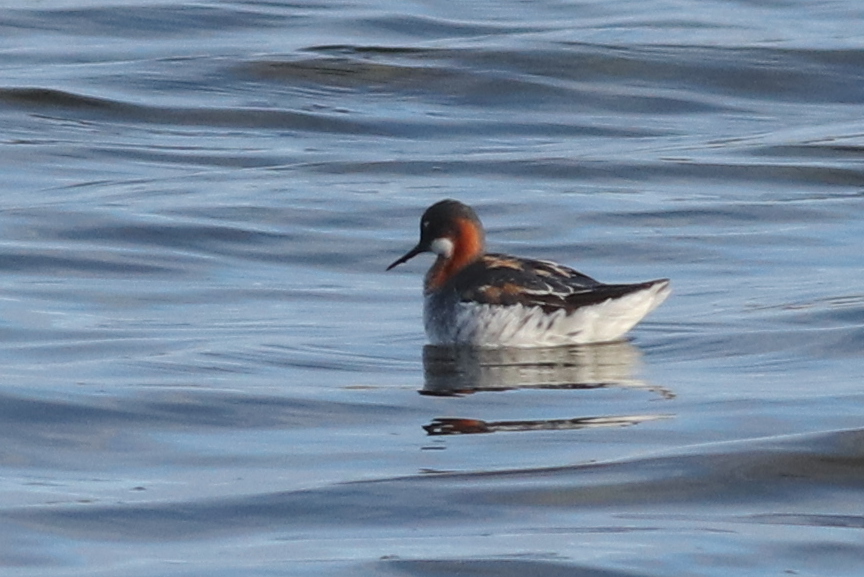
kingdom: Animalia
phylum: Chordata
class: Aves
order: Charadriiformes
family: Scolopacidae
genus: Phalaropus
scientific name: Phalaropus lobatus
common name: Red-necked phalarope
